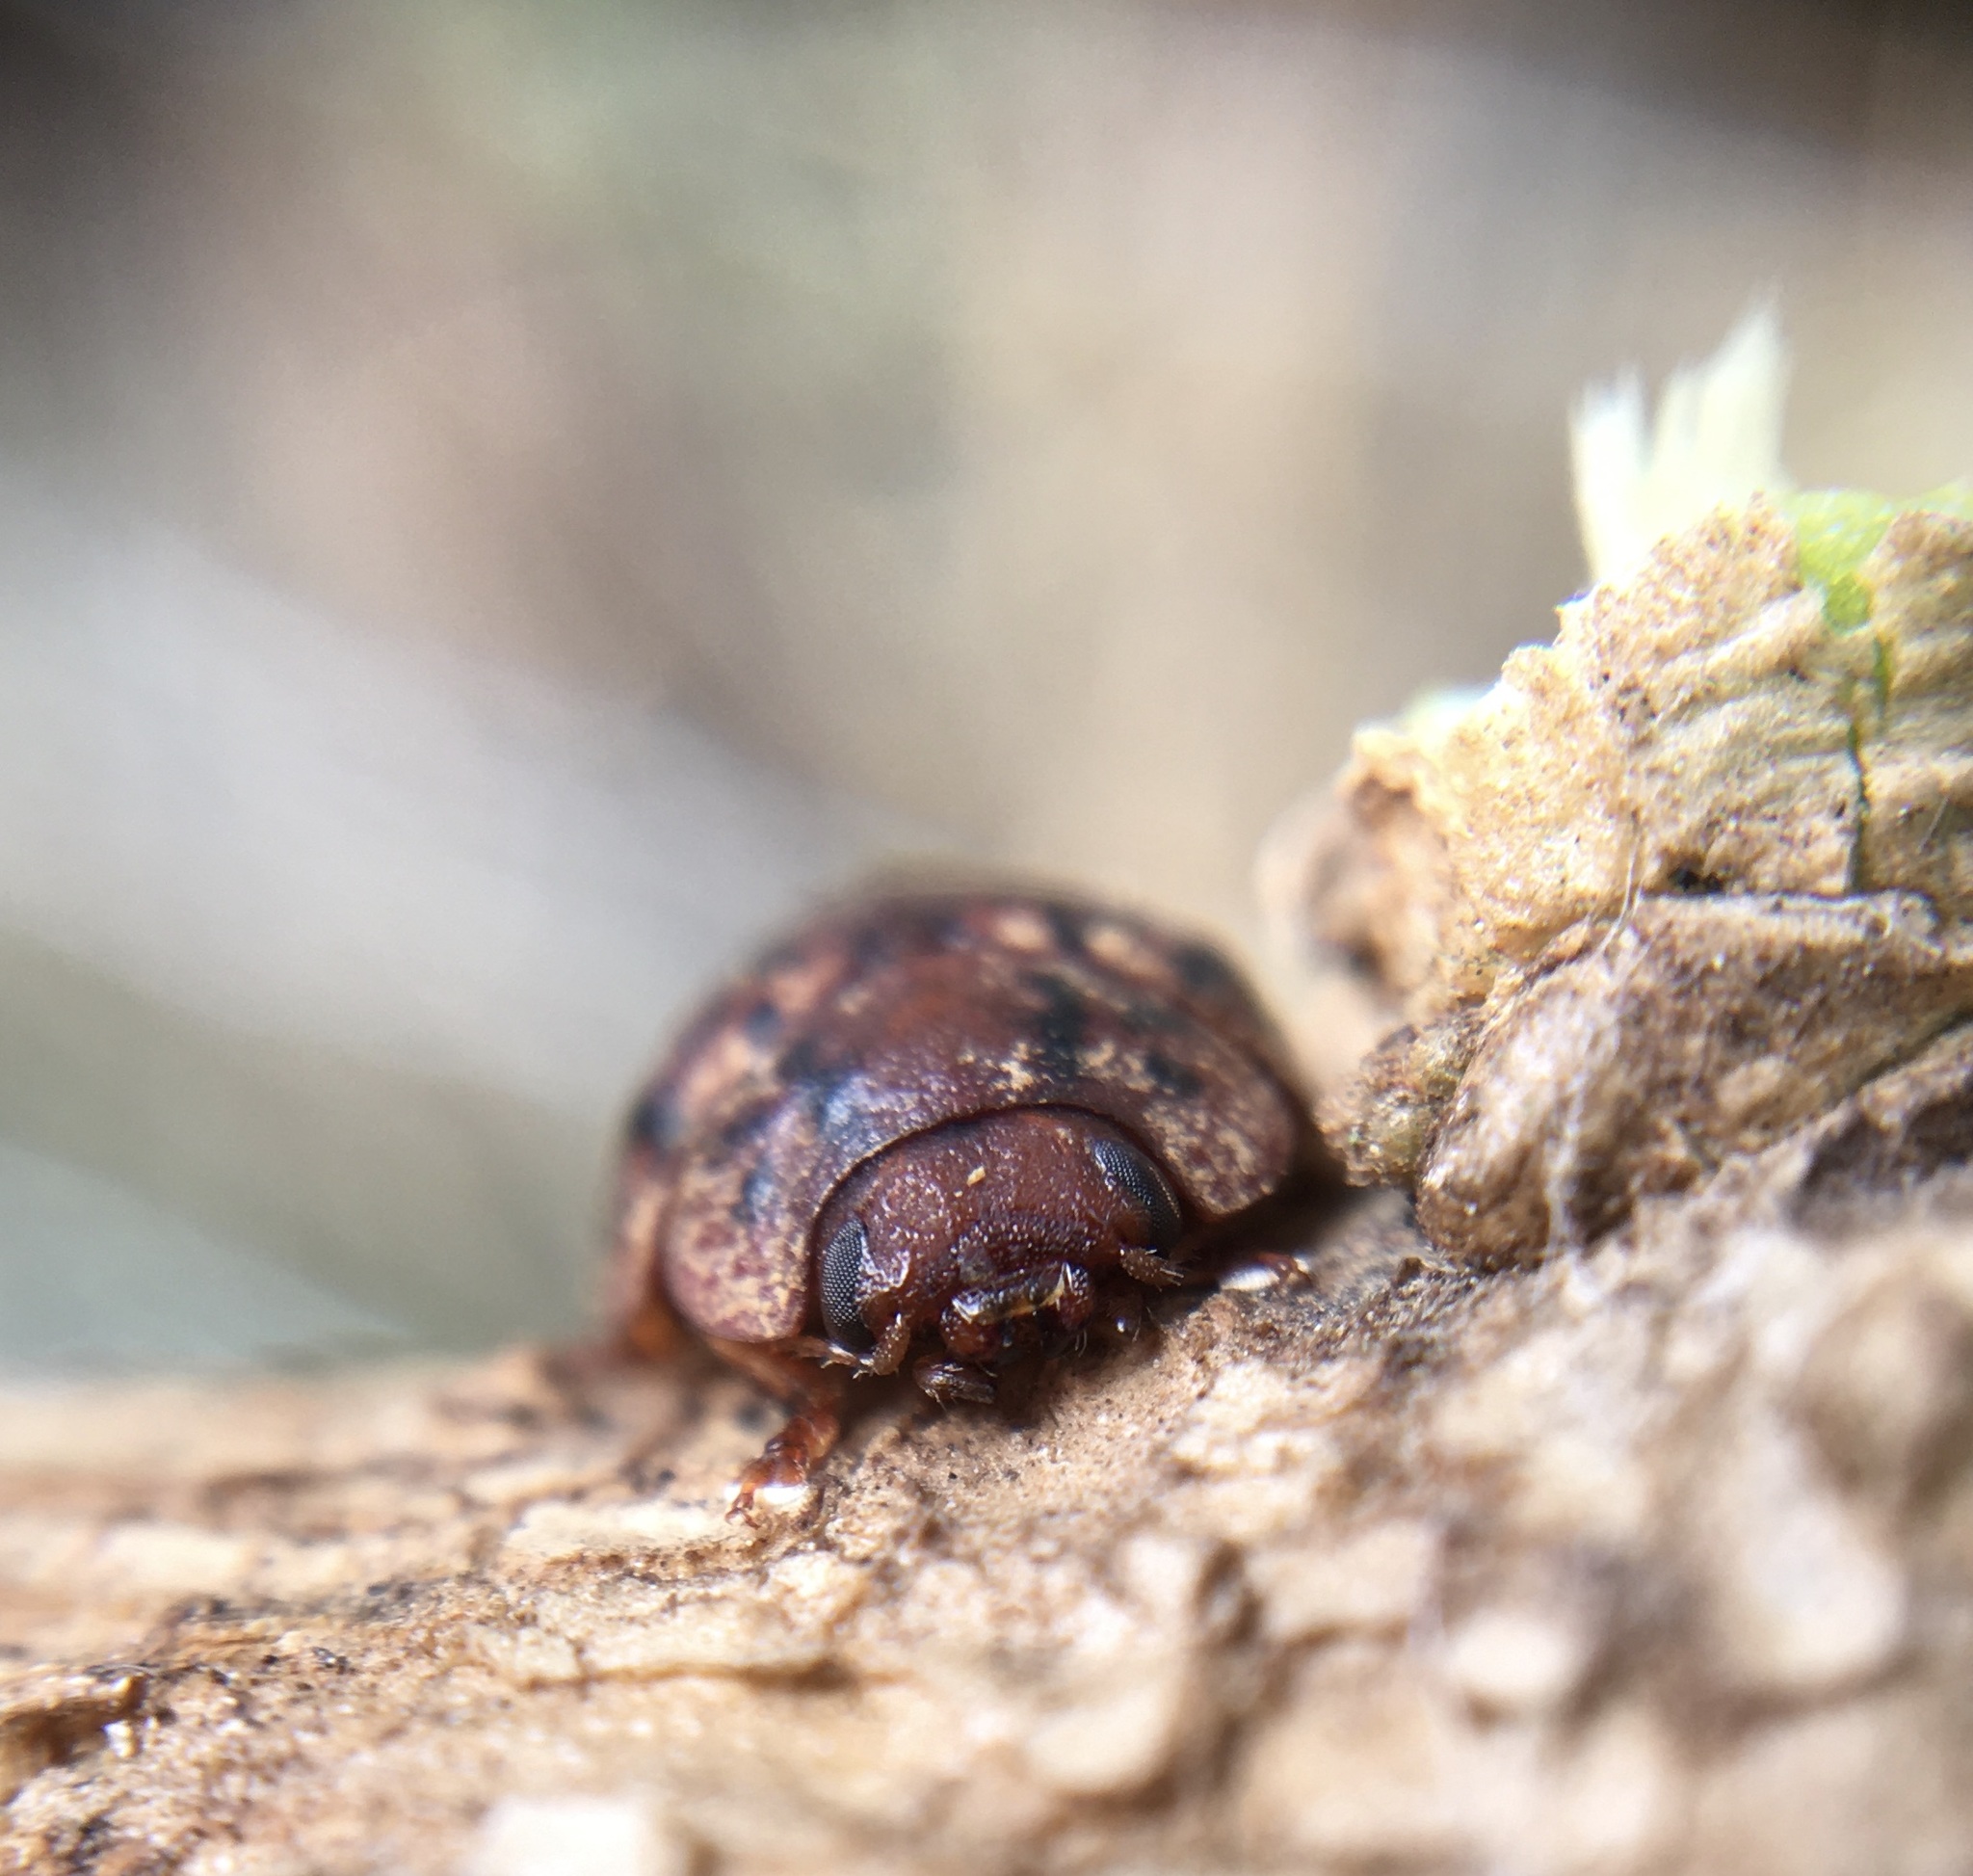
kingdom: Animalia
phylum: Arthropoda
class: Insecta
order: Coleoptera
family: Chrysomelidae
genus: Trachymela
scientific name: Trachymela sloanei
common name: Australian tortoise beetle
